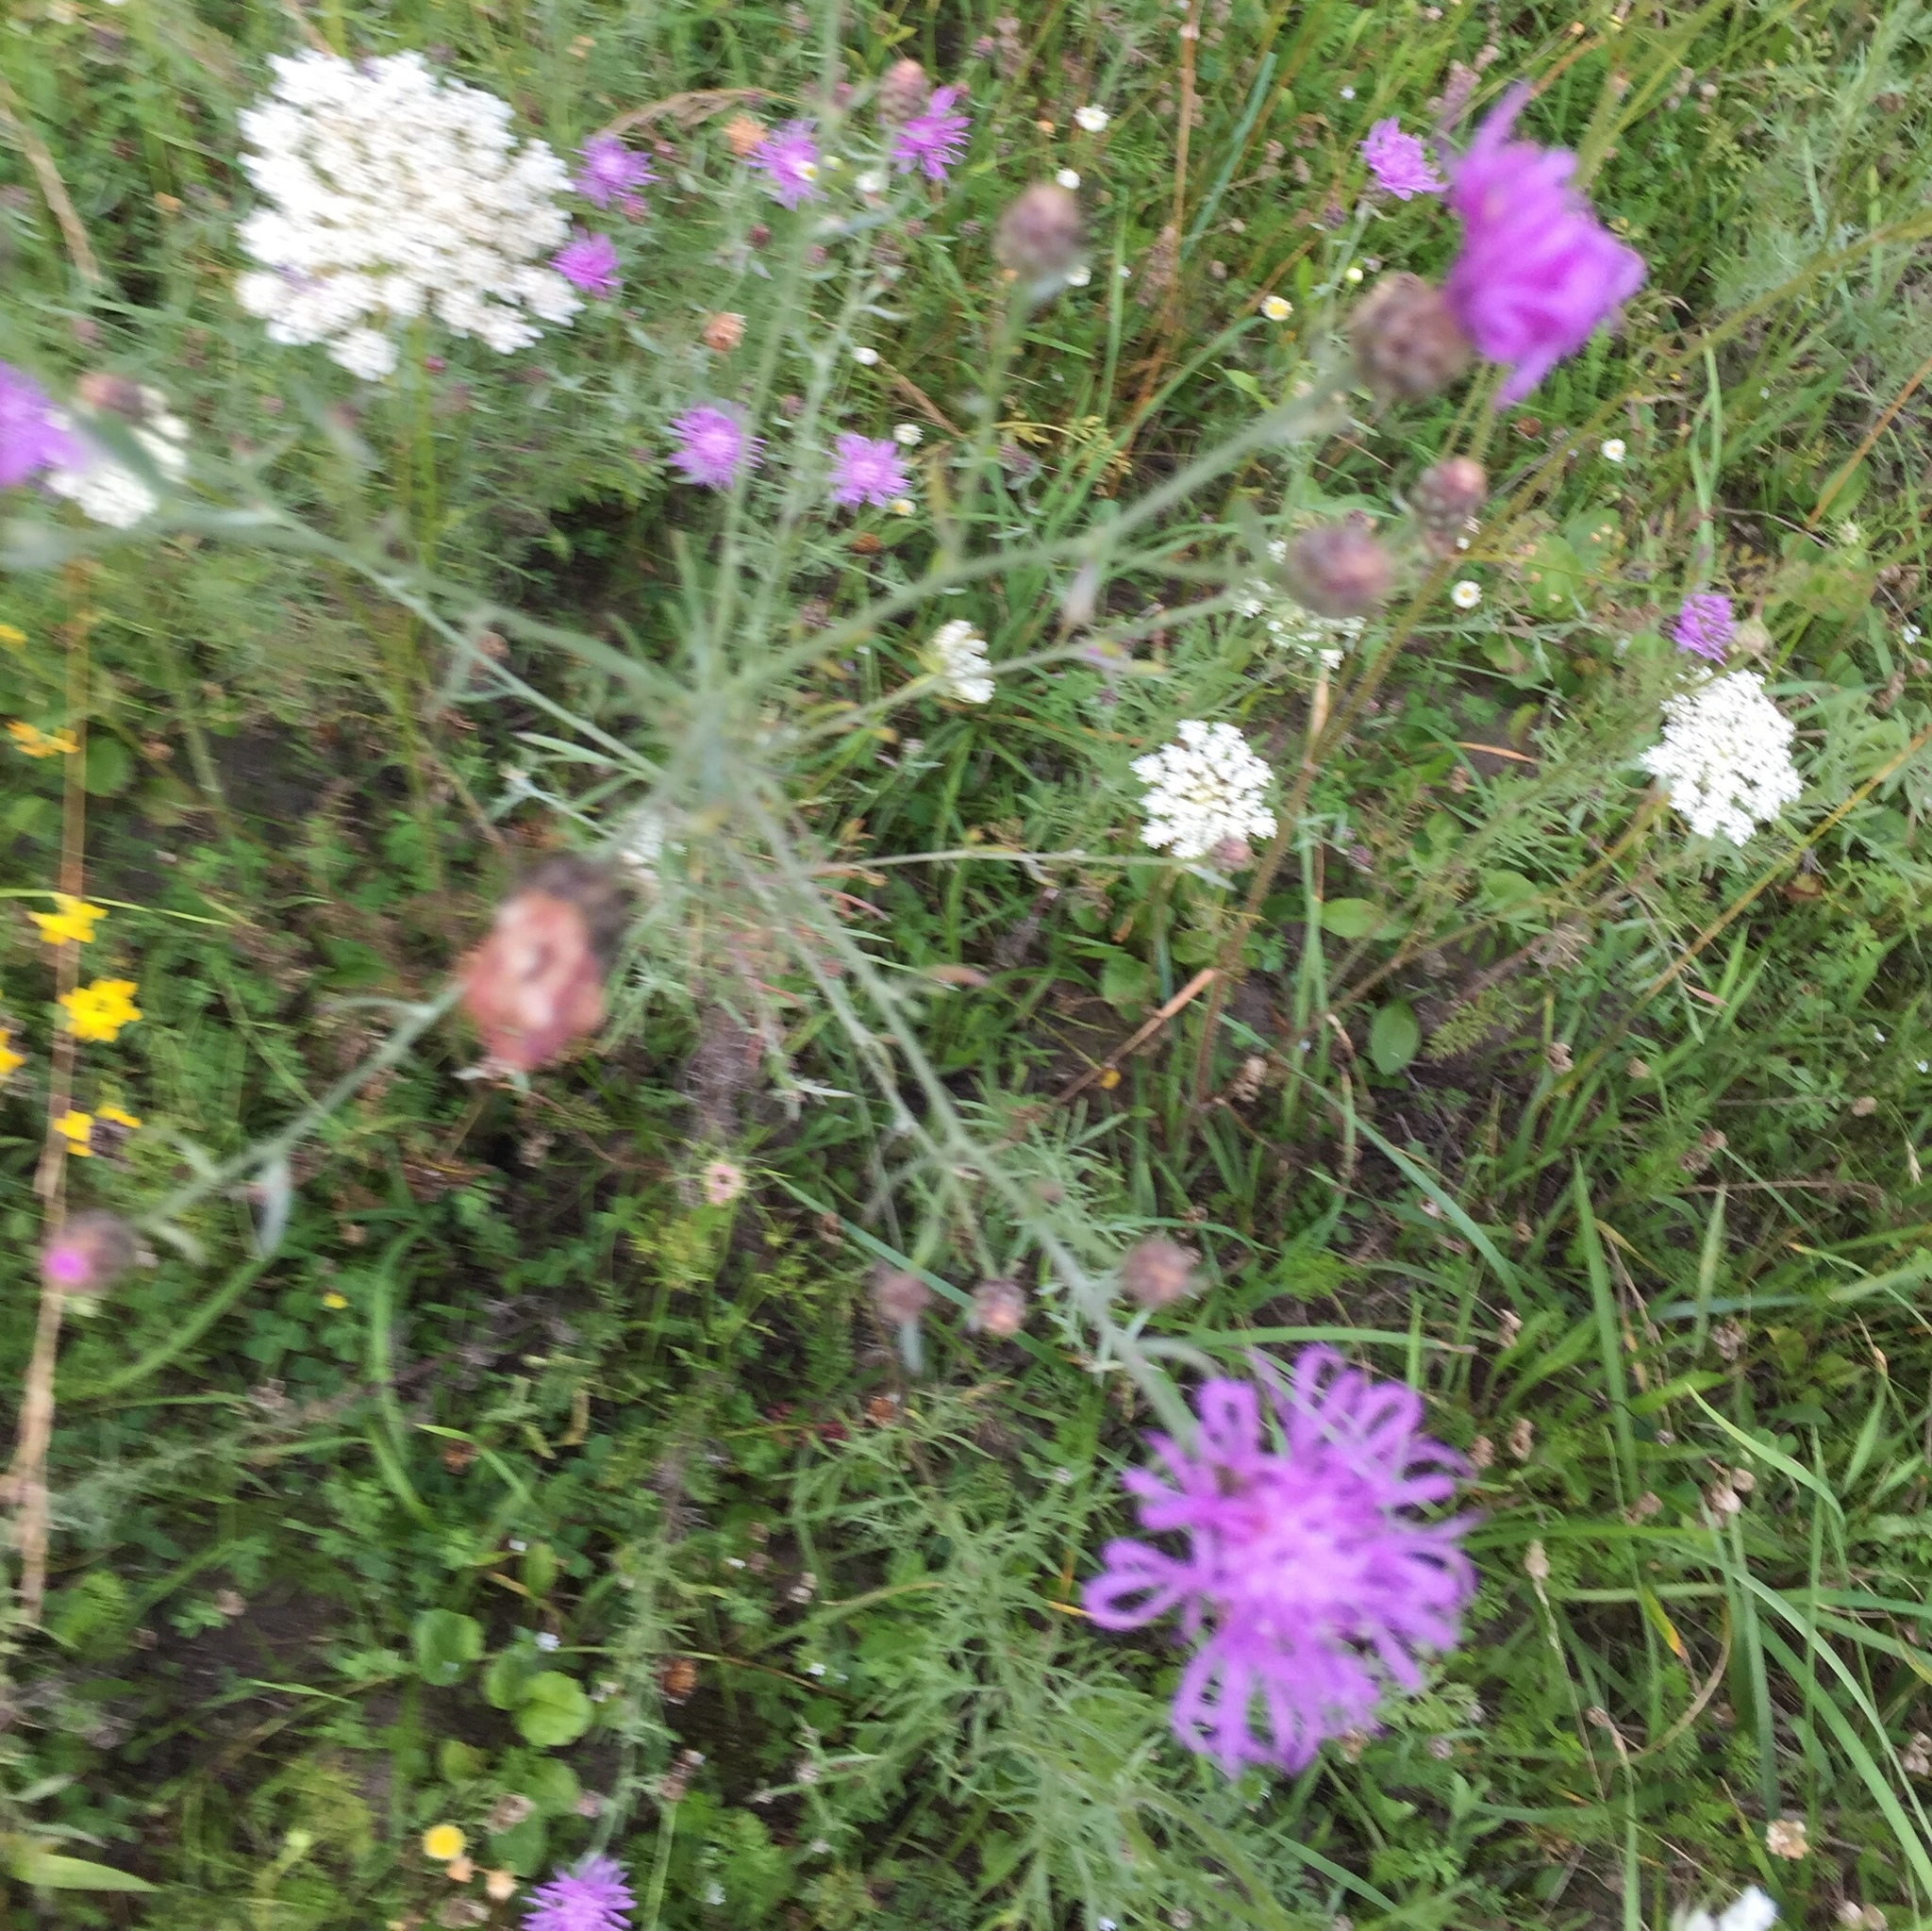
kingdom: Plantae
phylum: Tracheophyta
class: Magnoliopsida
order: Asterales
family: Asteraceae
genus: Centaurea
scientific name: Centaurea stoebe
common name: Spotted knapweed
